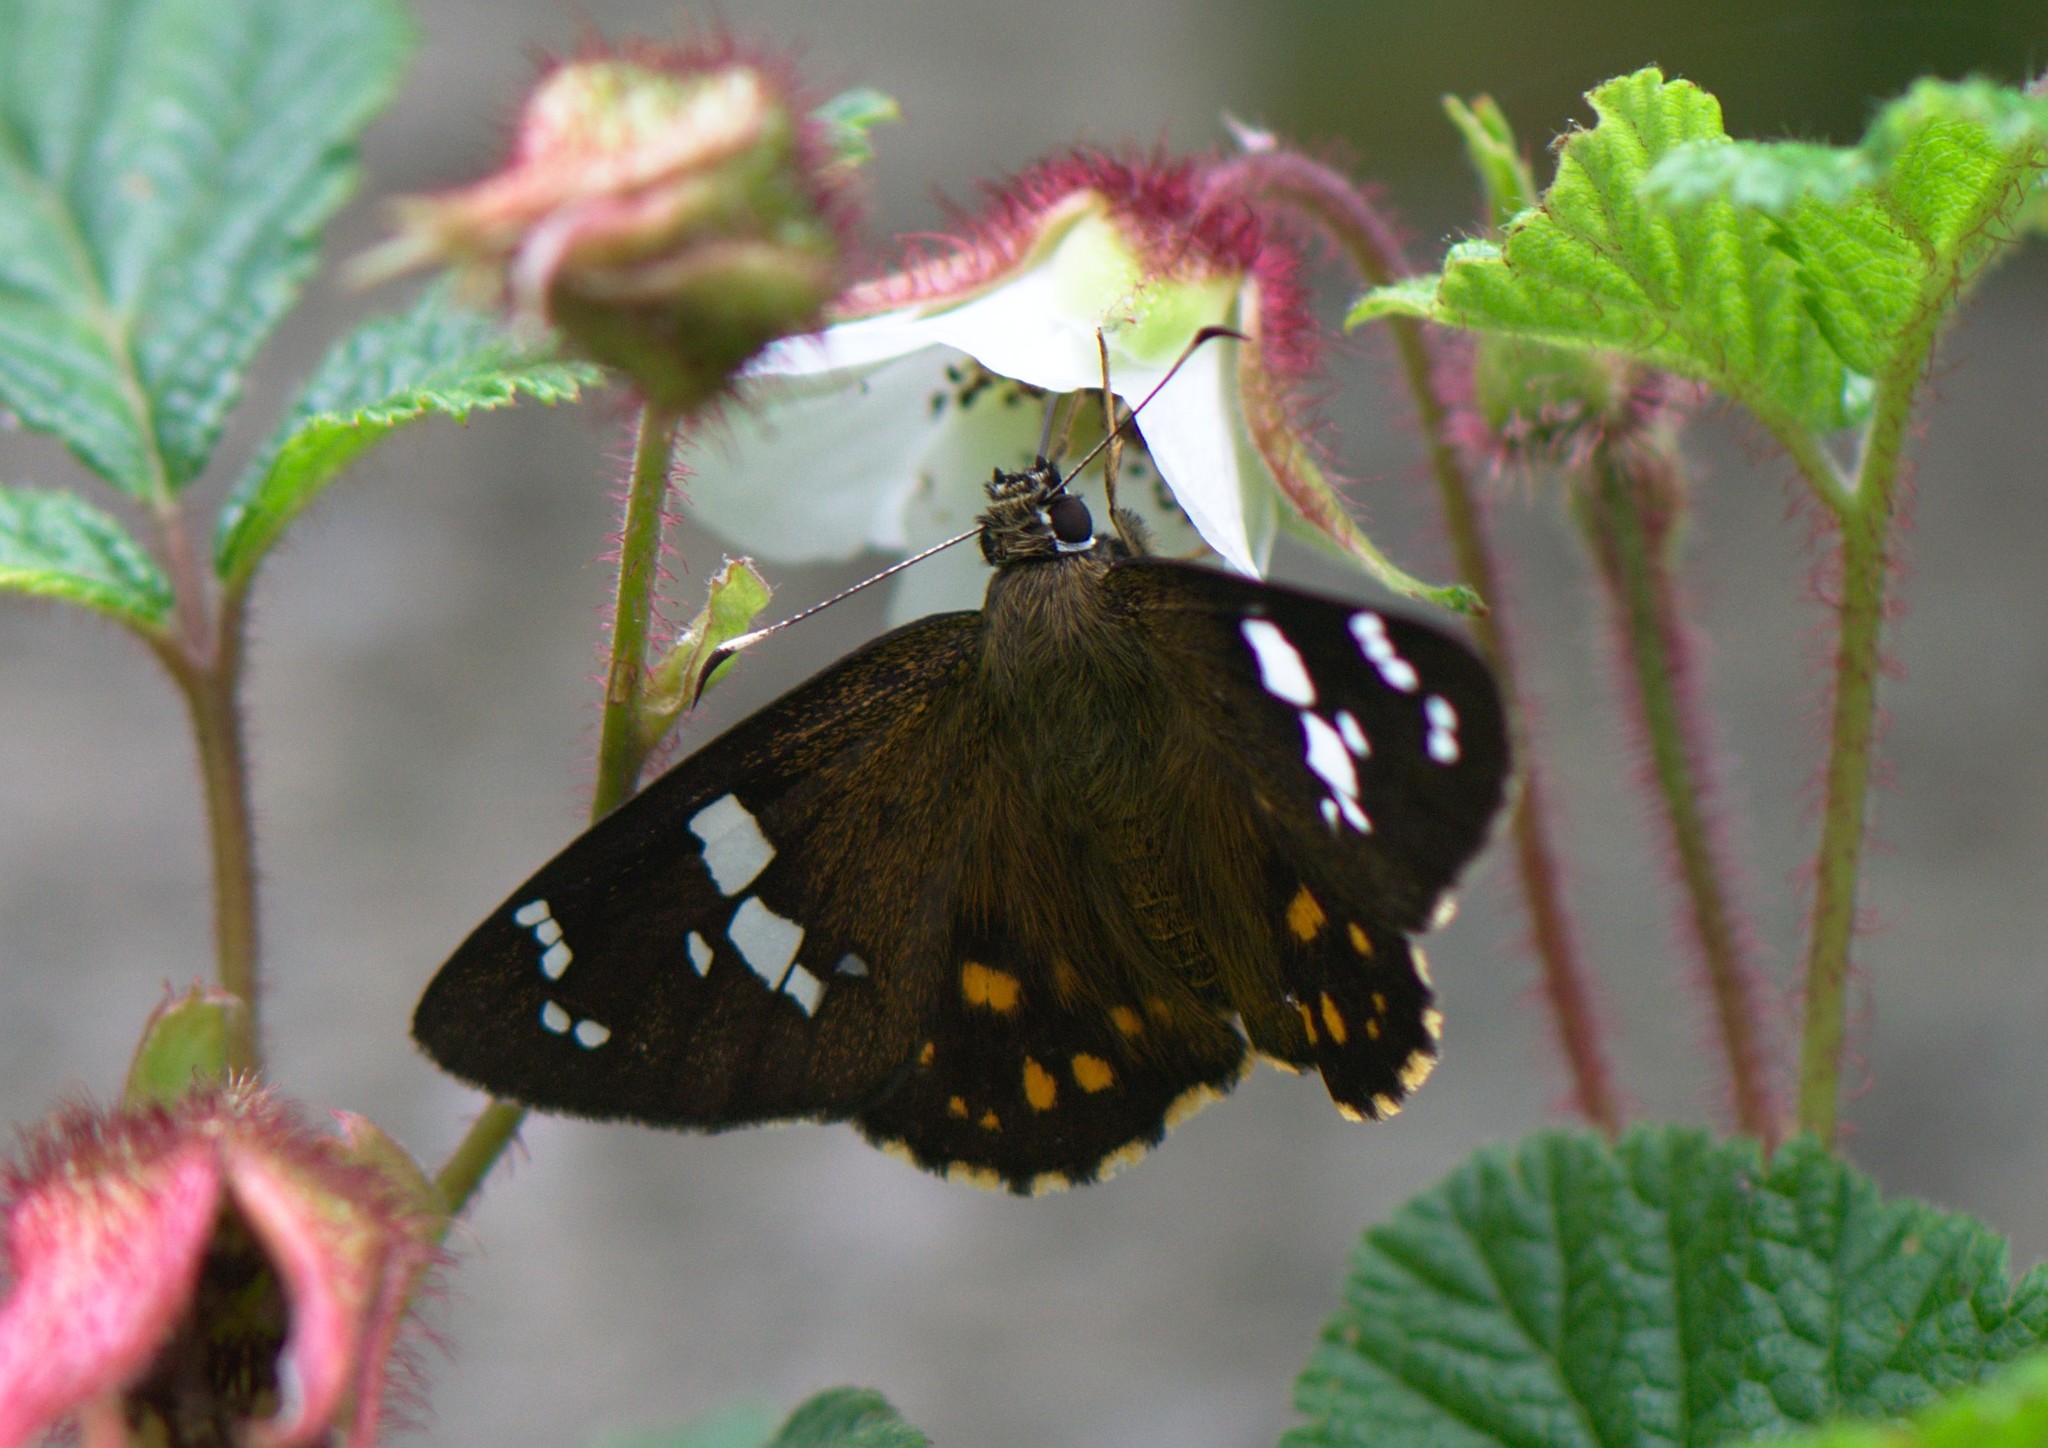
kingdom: Animalia
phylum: Arthropoda
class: Insecta
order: Lepidoptera
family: Hesperiidae
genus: Celaenorrhinus
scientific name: Celaenorrhinus pulomaya
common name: Multi-spotted flat
